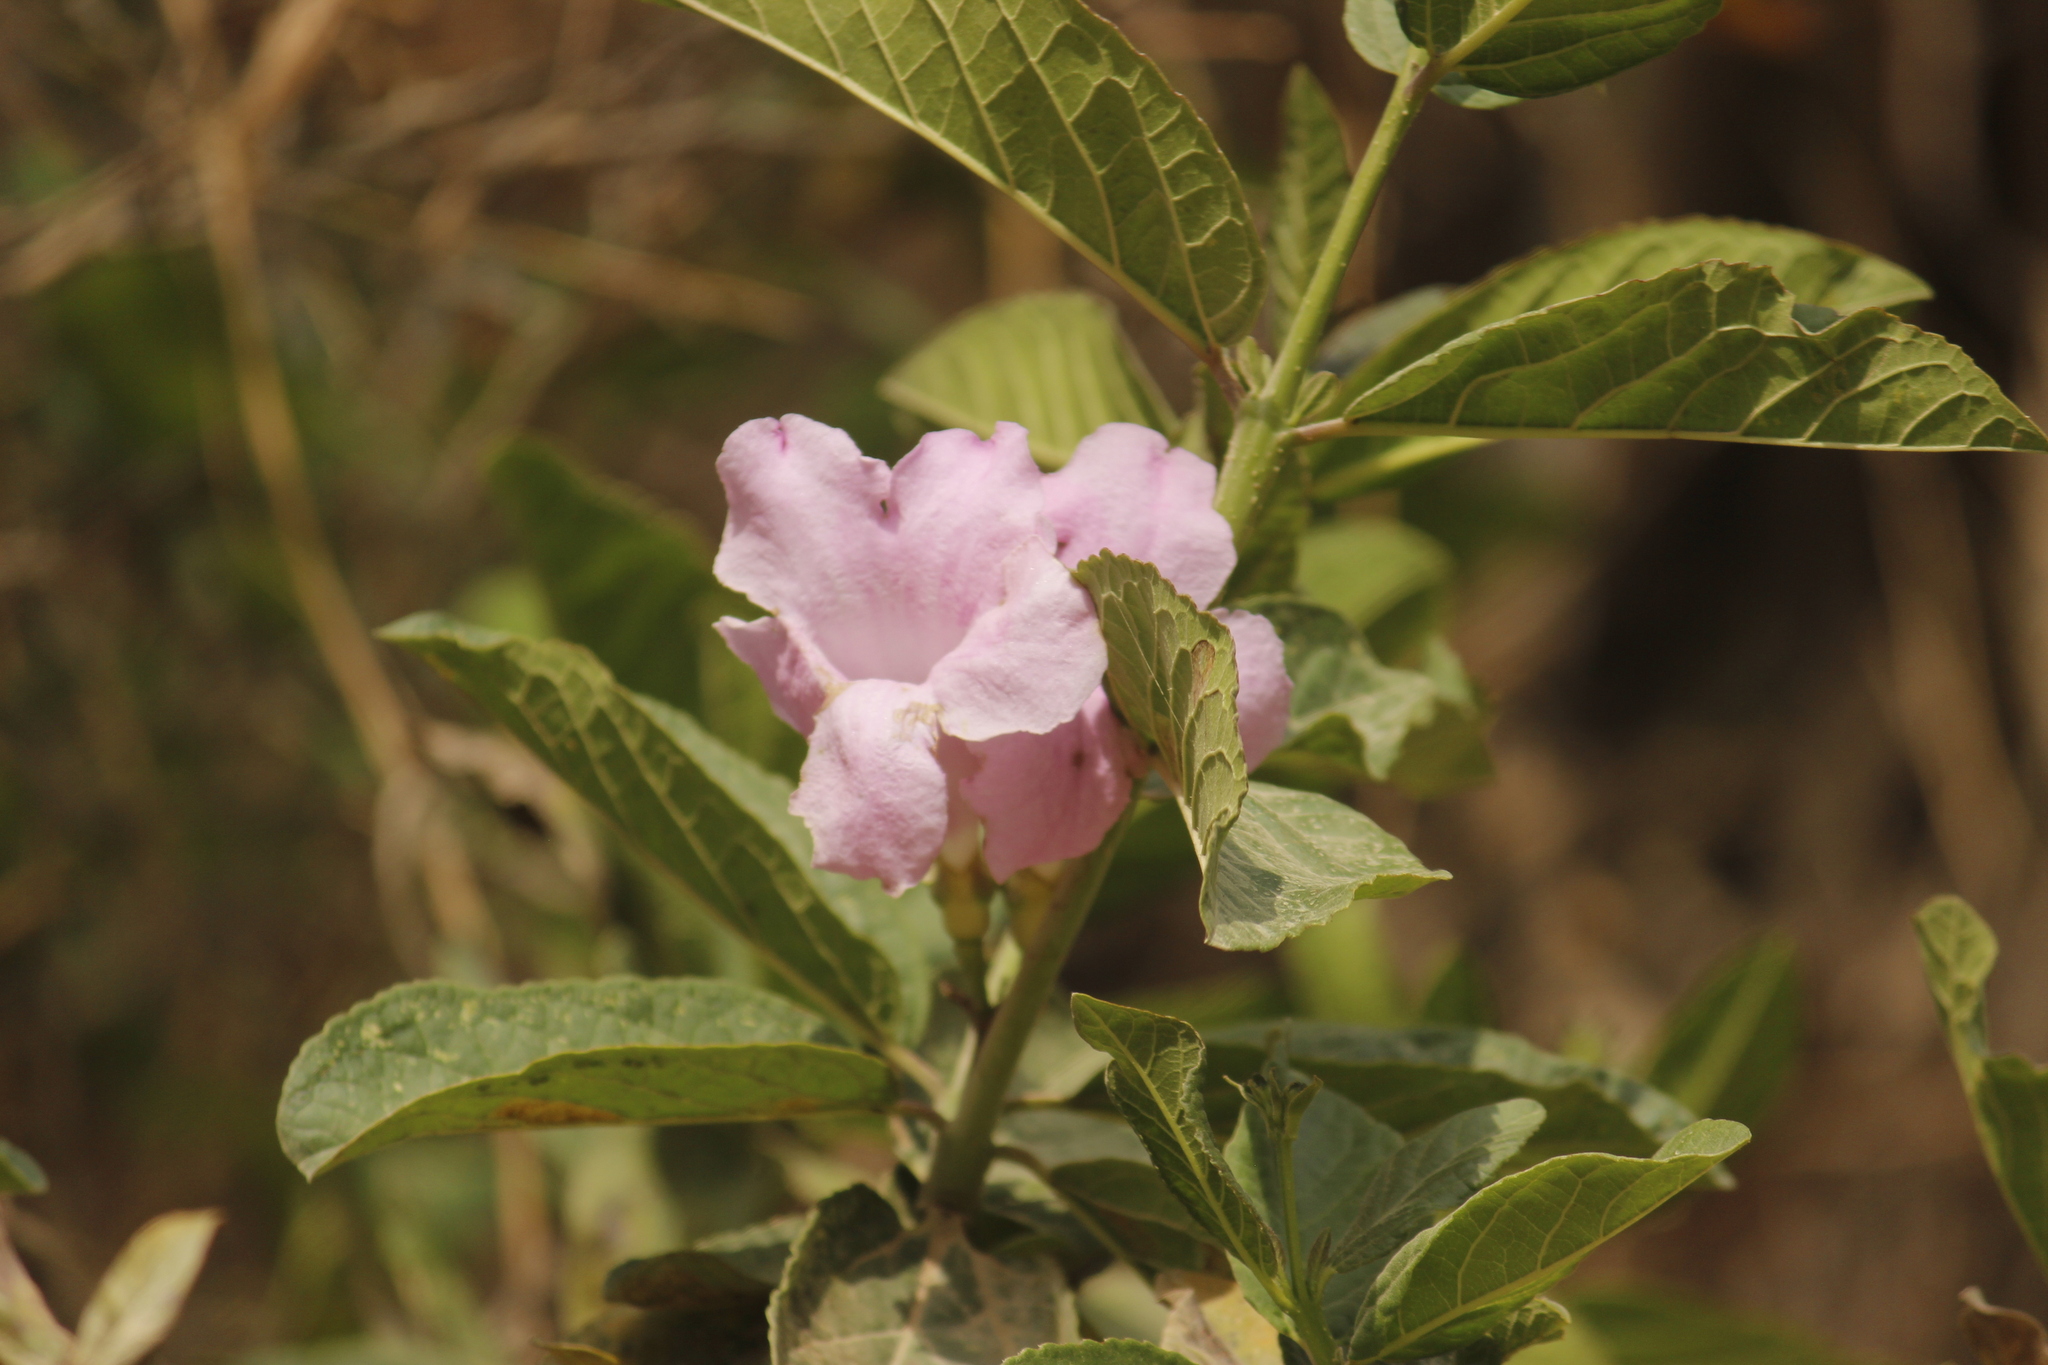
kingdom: Plantae
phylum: Tracheophyta
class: Magnoliopsida
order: Lamiales
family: Bignoniaceae
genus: Delostoma
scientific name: Delostoma dentatum
